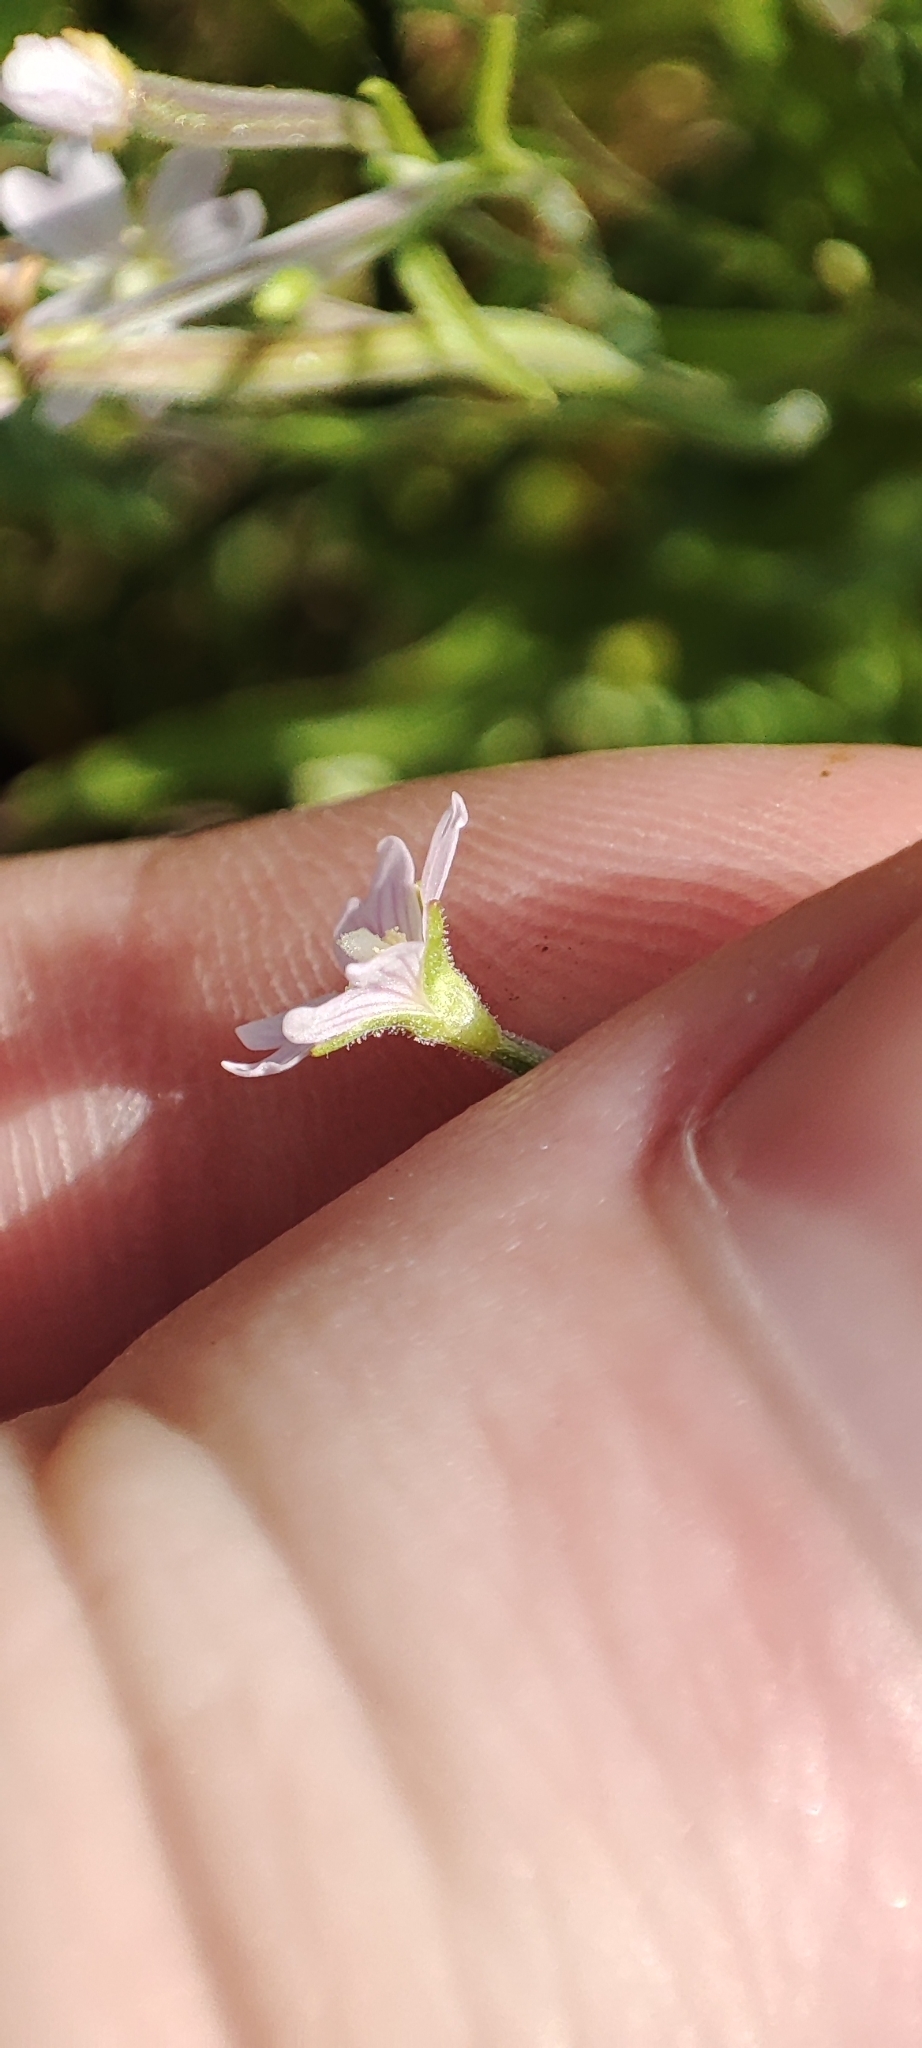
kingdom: Plantae
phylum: Tracheophyta
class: Magnoliopsida
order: Myrtales
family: Onagraceae
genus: Epilobium
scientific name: Epilobium palustre
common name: Marsh willowherb
